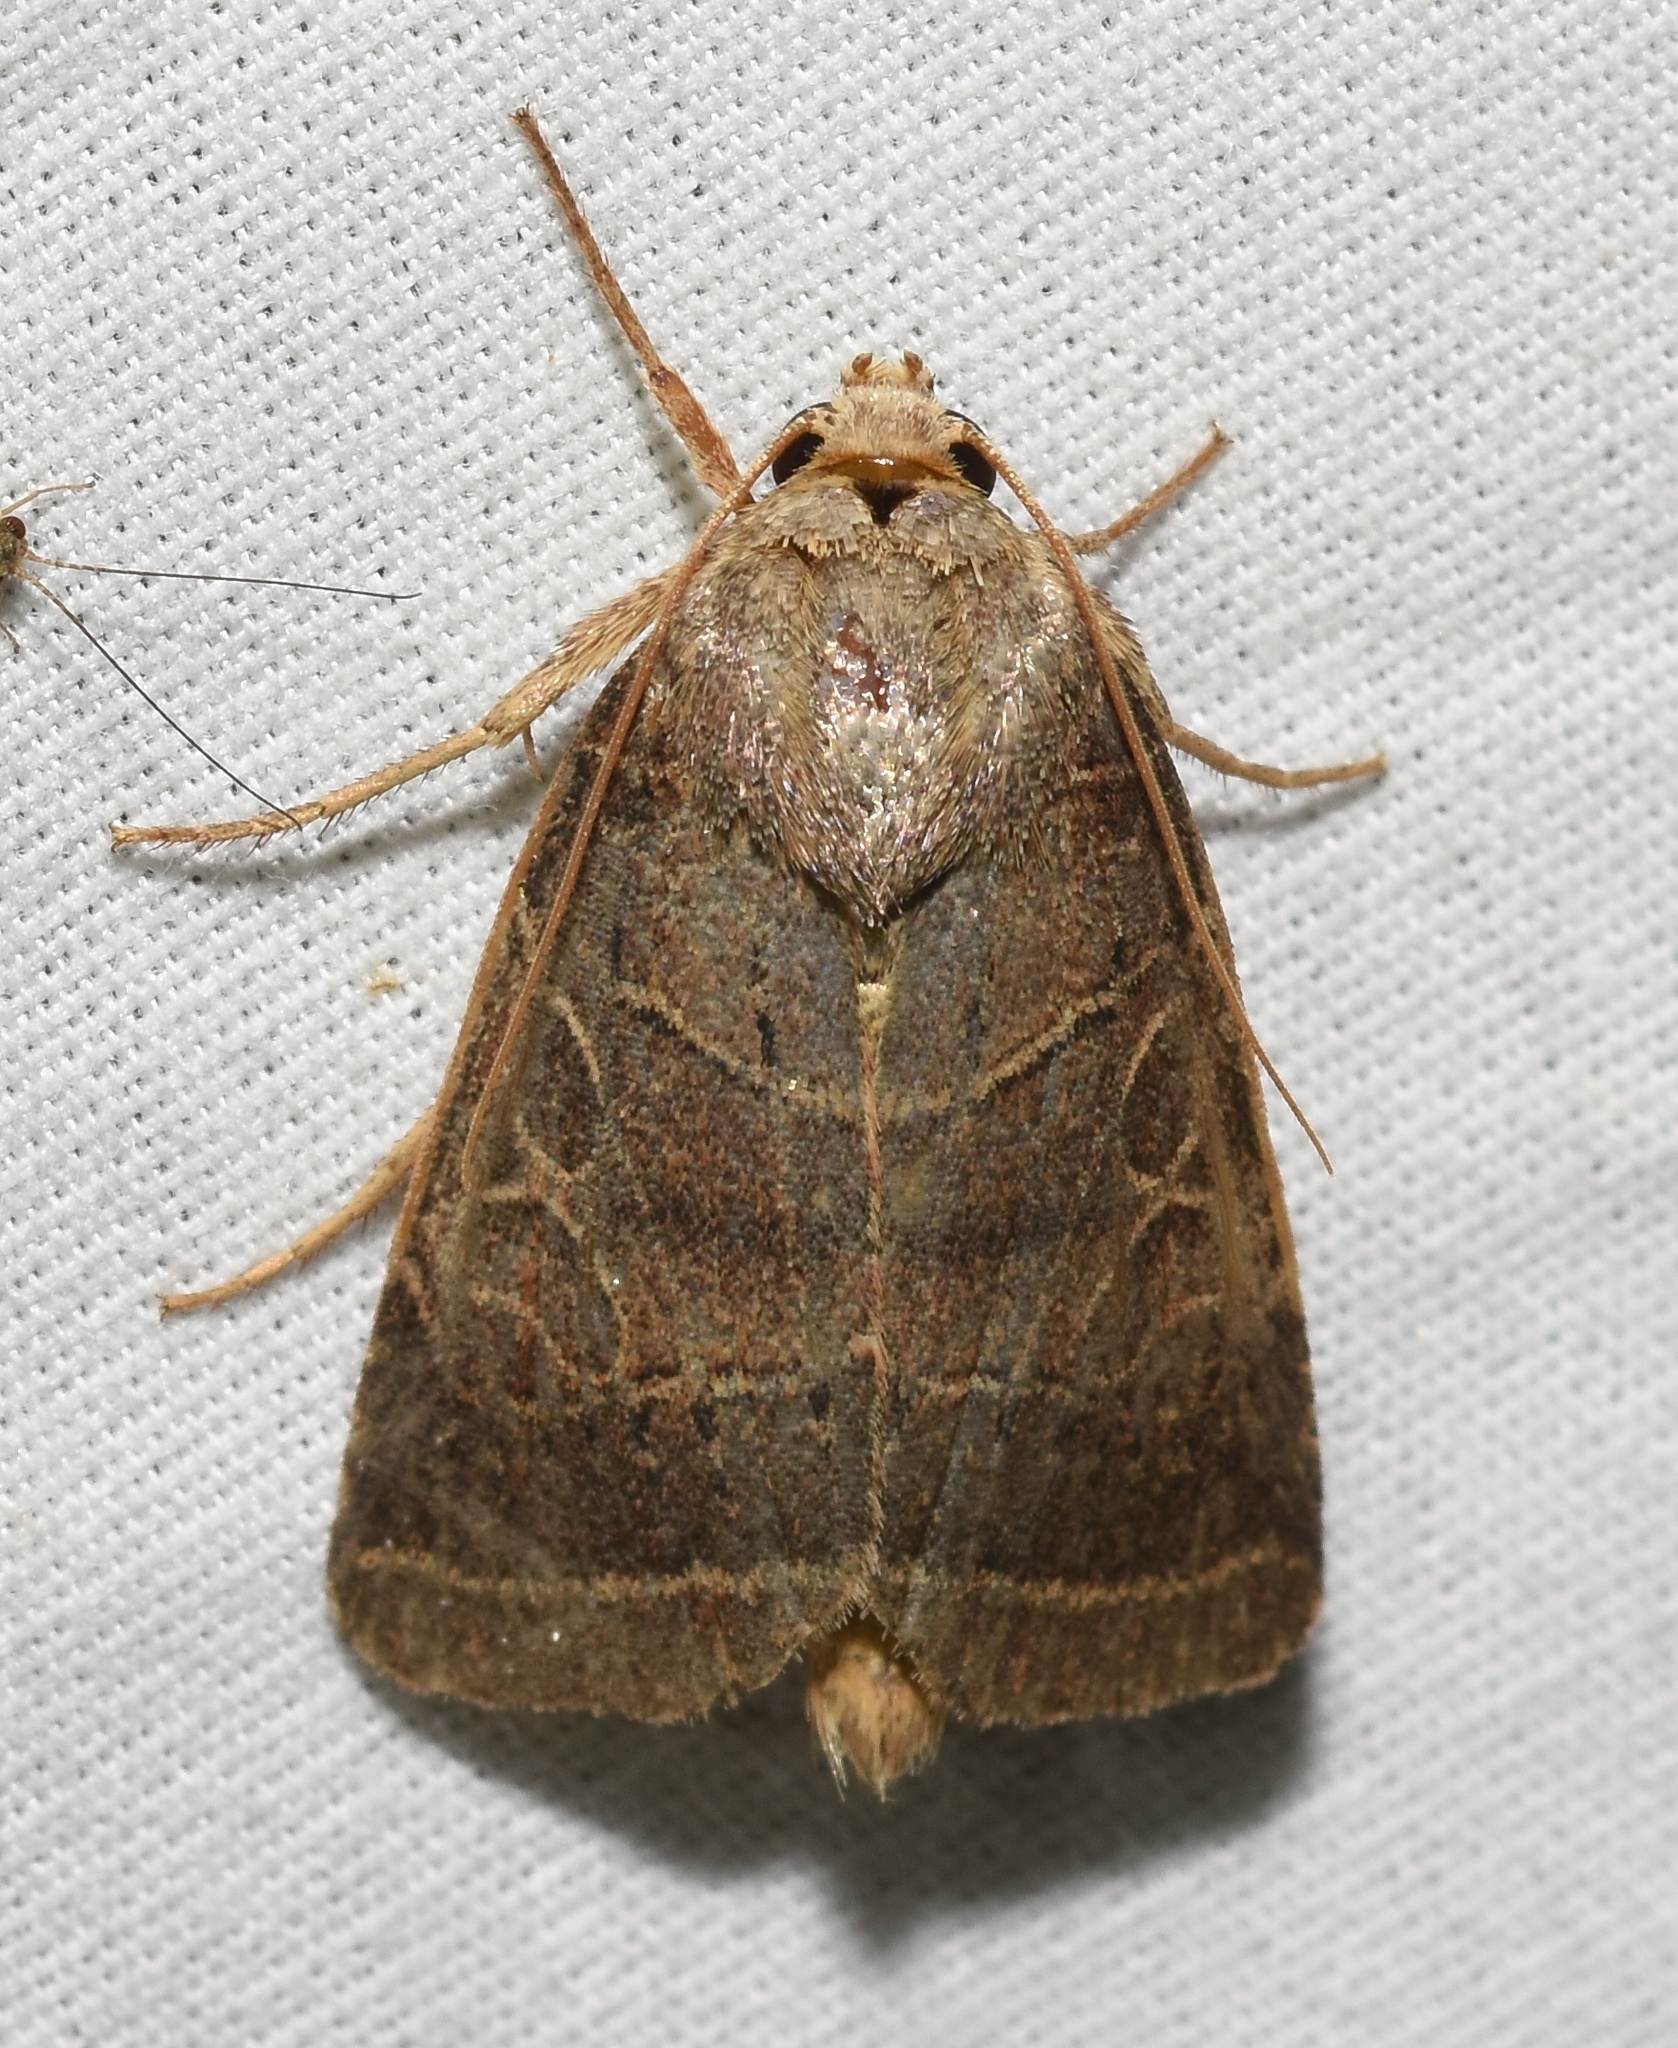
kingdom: Animalia
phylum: Arthropoda
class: Insecta
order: Lepidoptera
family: Noctuidae
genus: Orthodes
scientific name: Orthodes majuscula
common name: Rustic quaker
